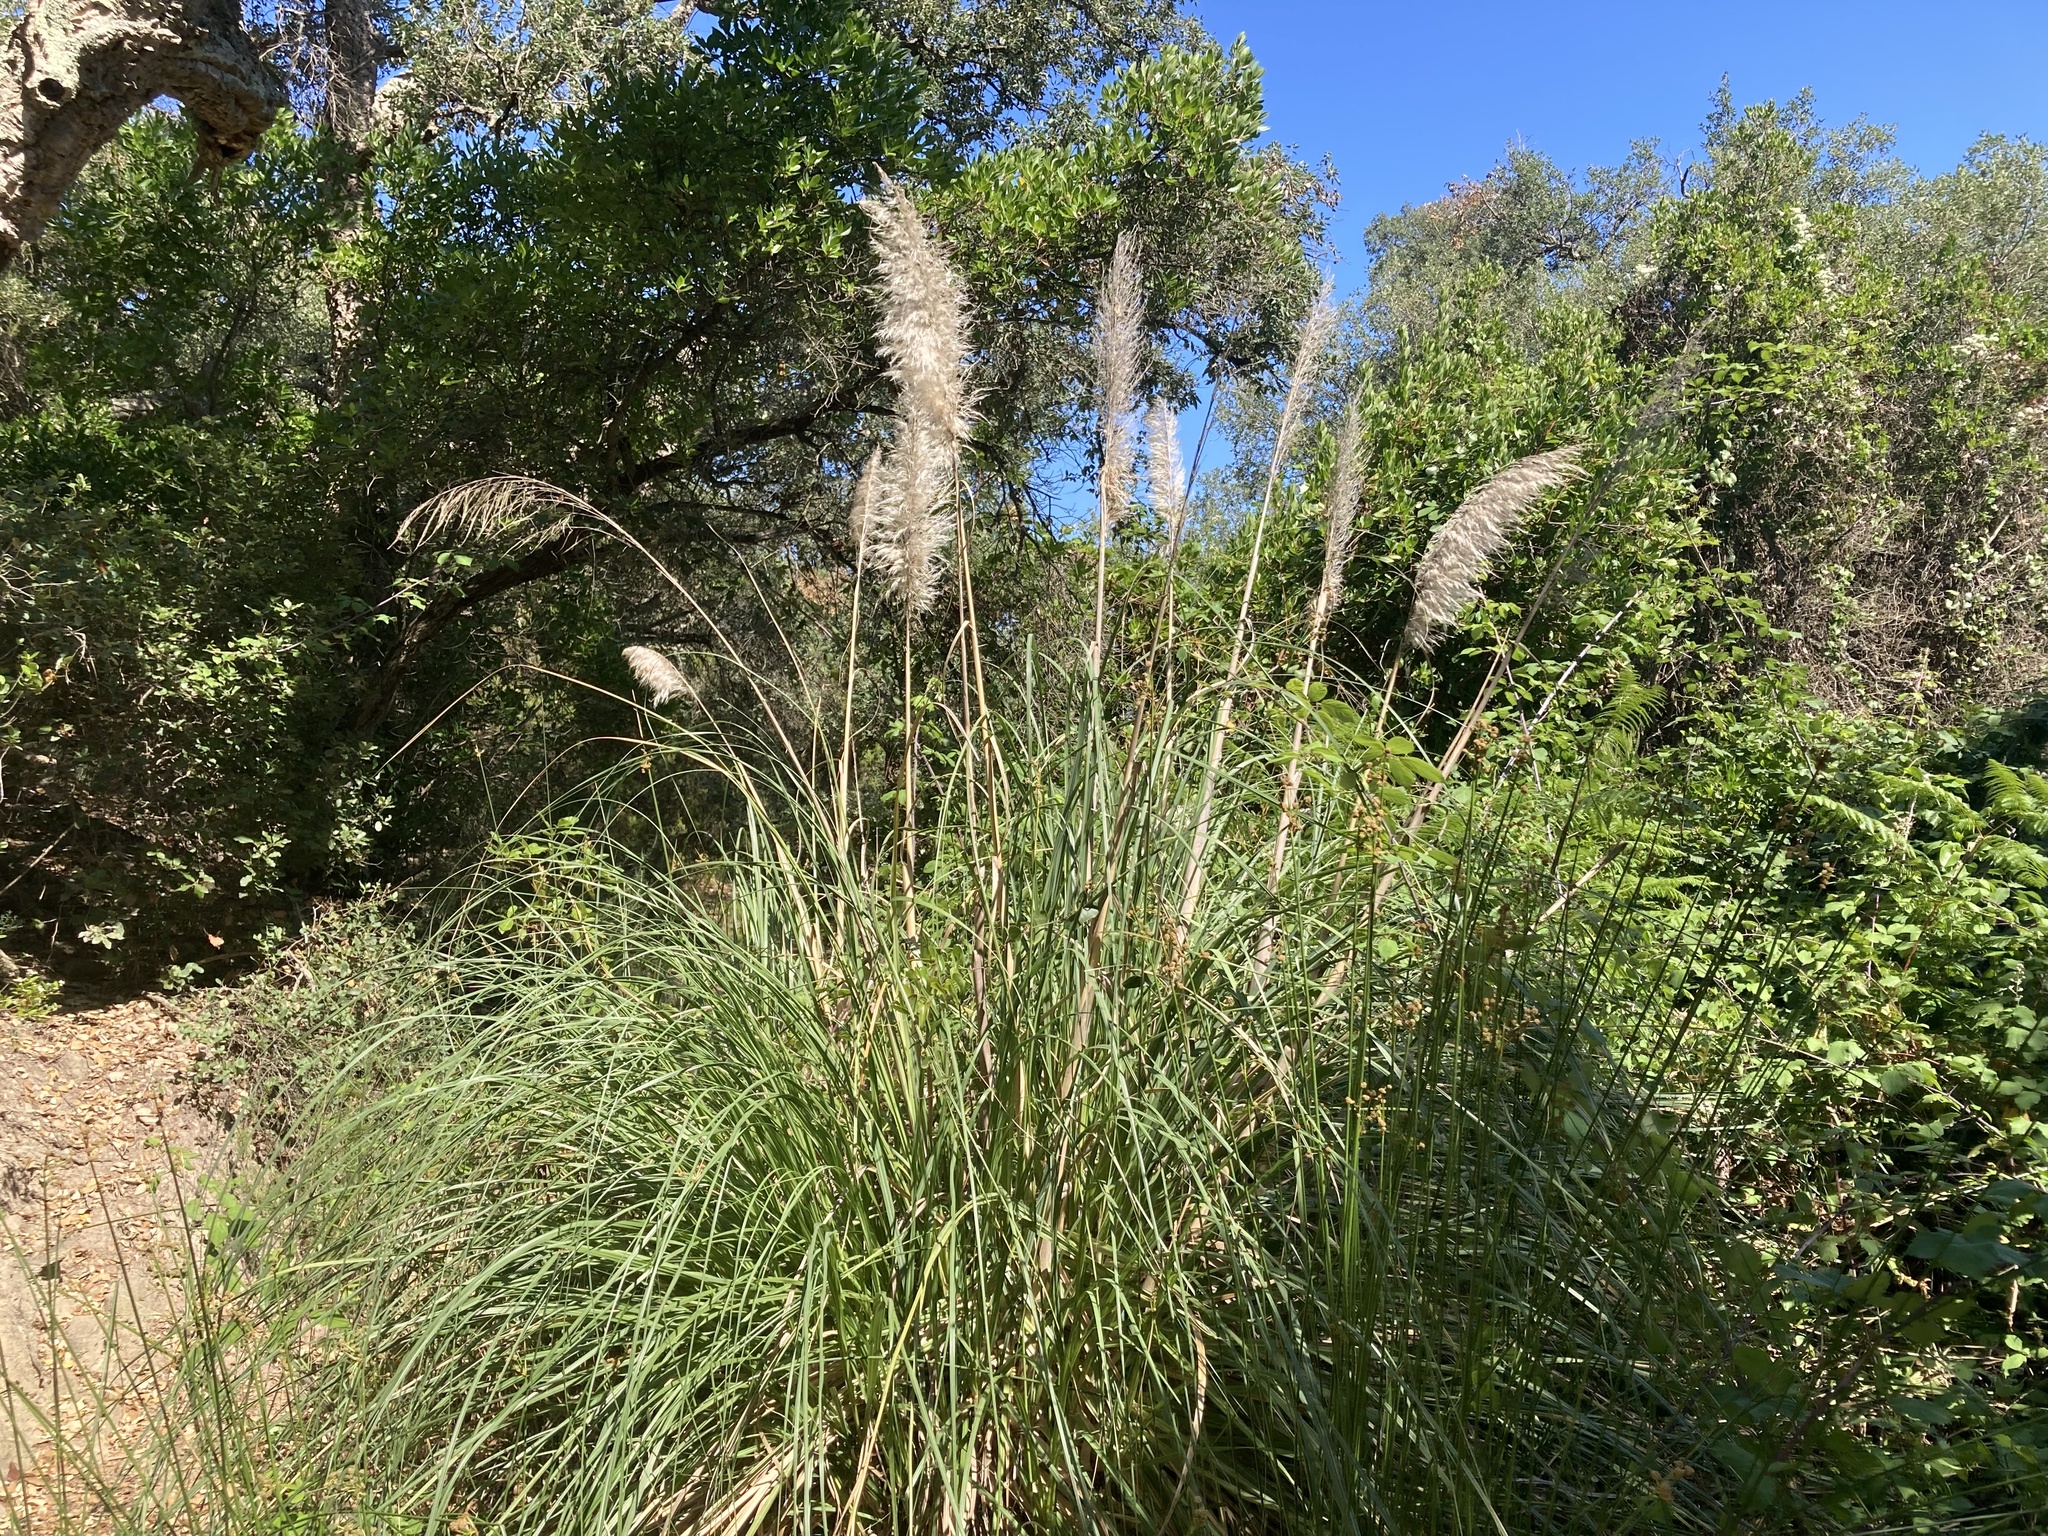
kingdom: Plantae
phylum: Tracheophyta
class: Liliopsida
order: Poales
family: Poaceae
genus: Cortaderia
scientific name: Cortaderia selloana
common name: Uruguayan pampas grass
